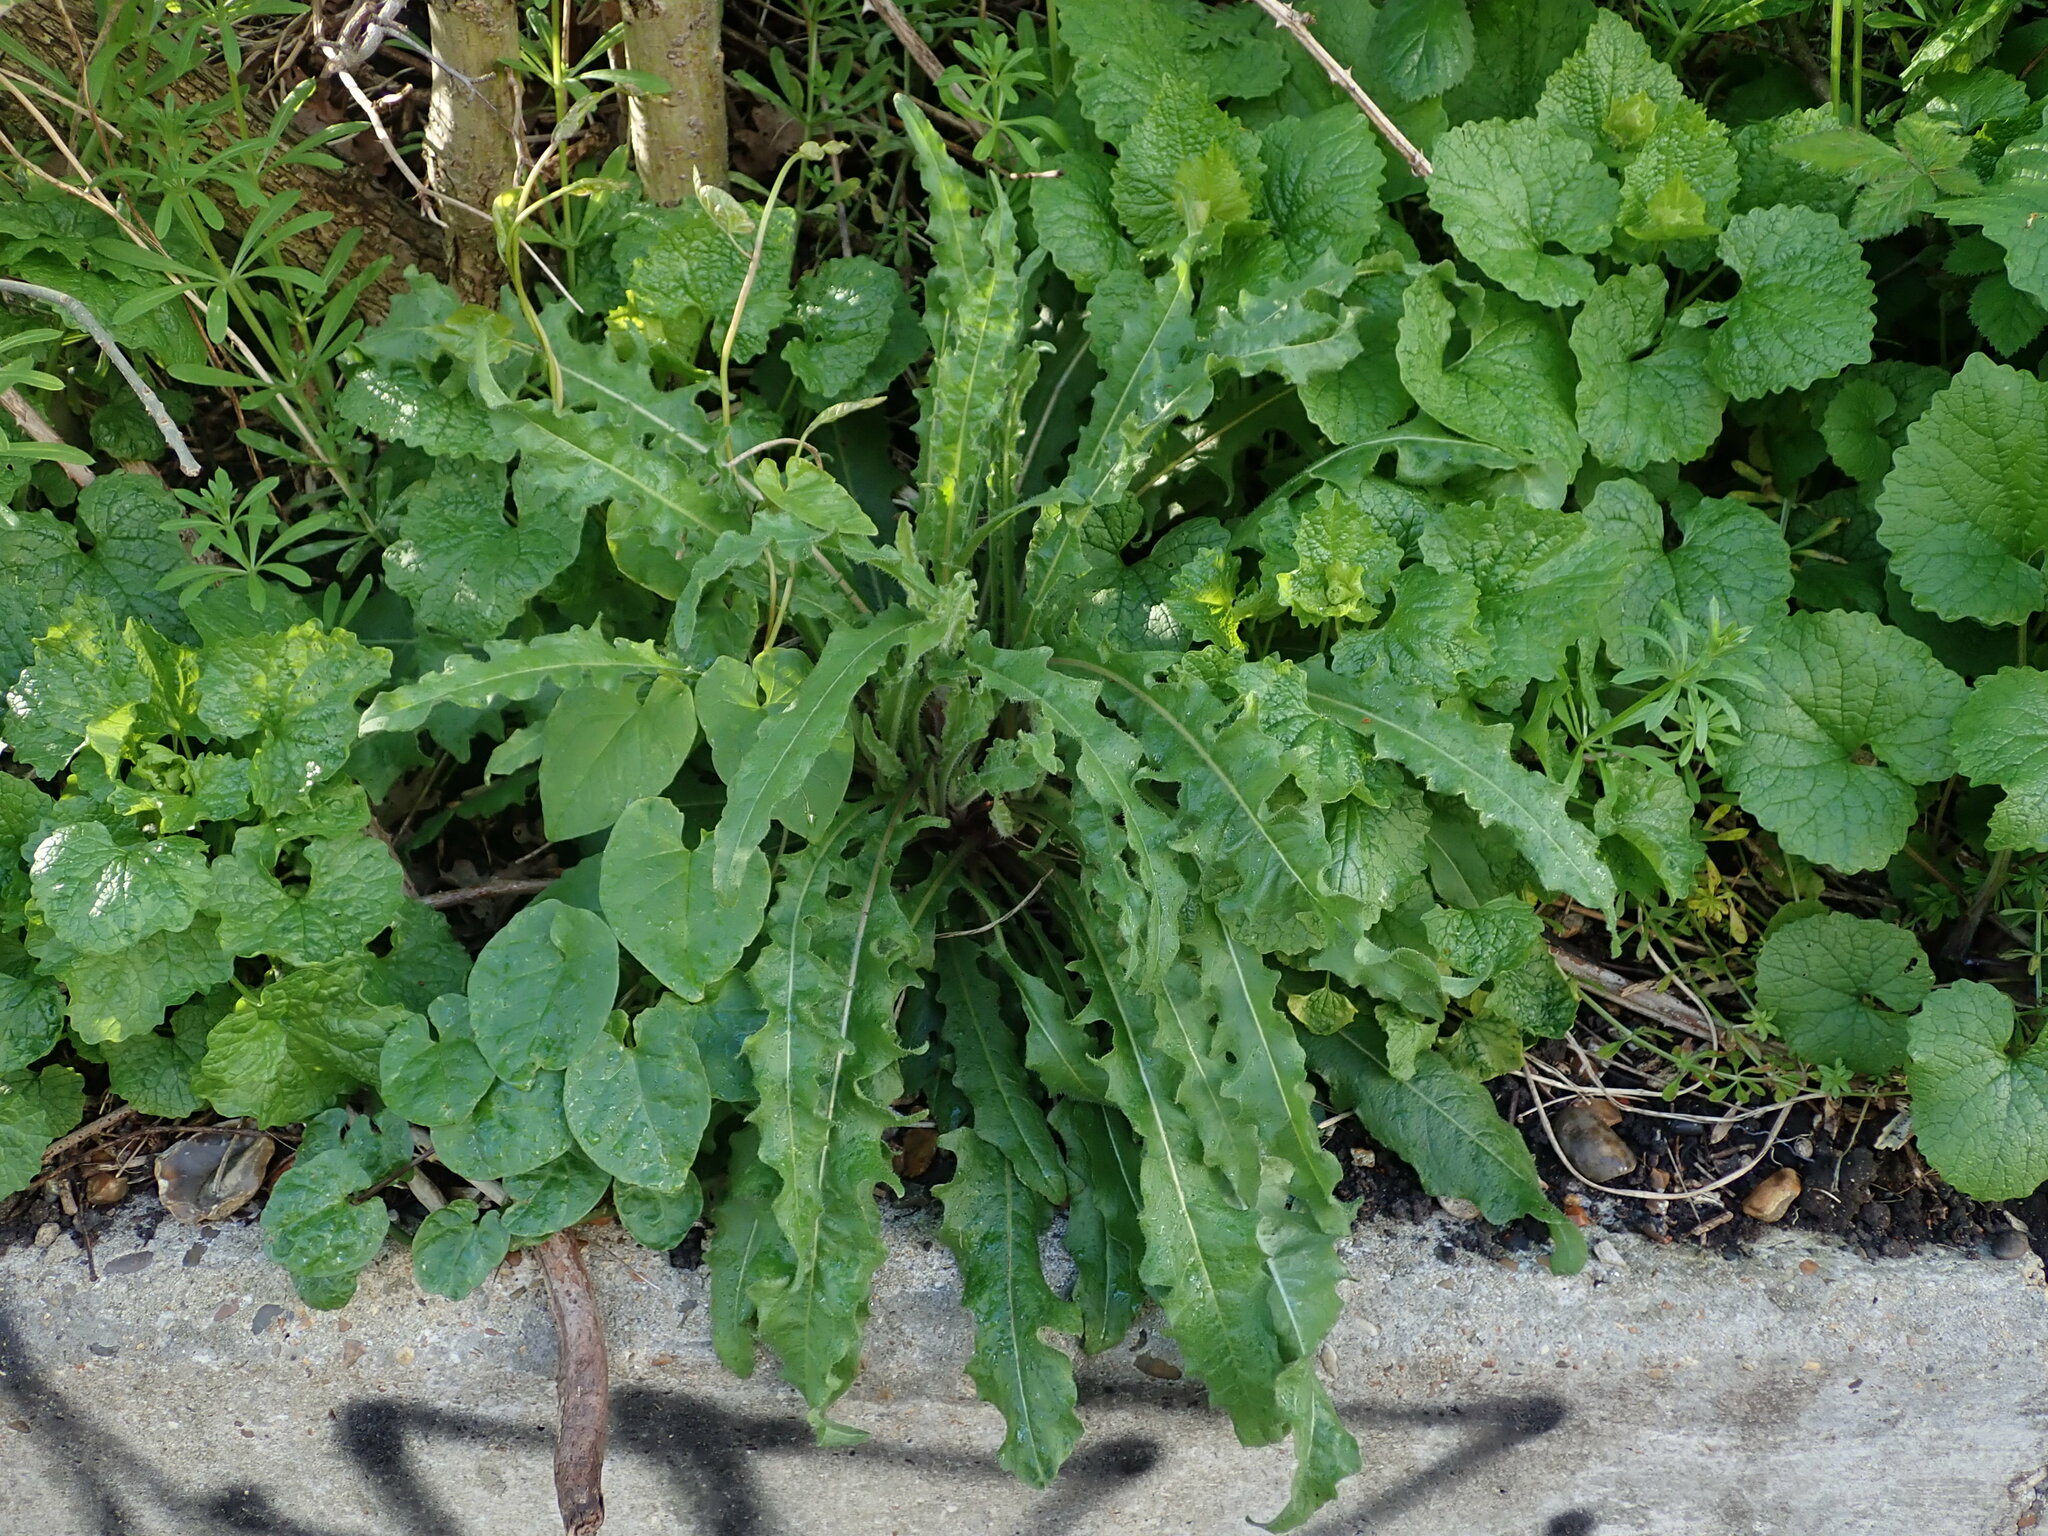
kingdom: Plantae
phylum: Tracheophyta
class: Magnoliopsida
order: Asterales
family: Asteraceae
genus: Picris
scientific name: Picris hieracioides
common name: Hawkweed oxtongue
